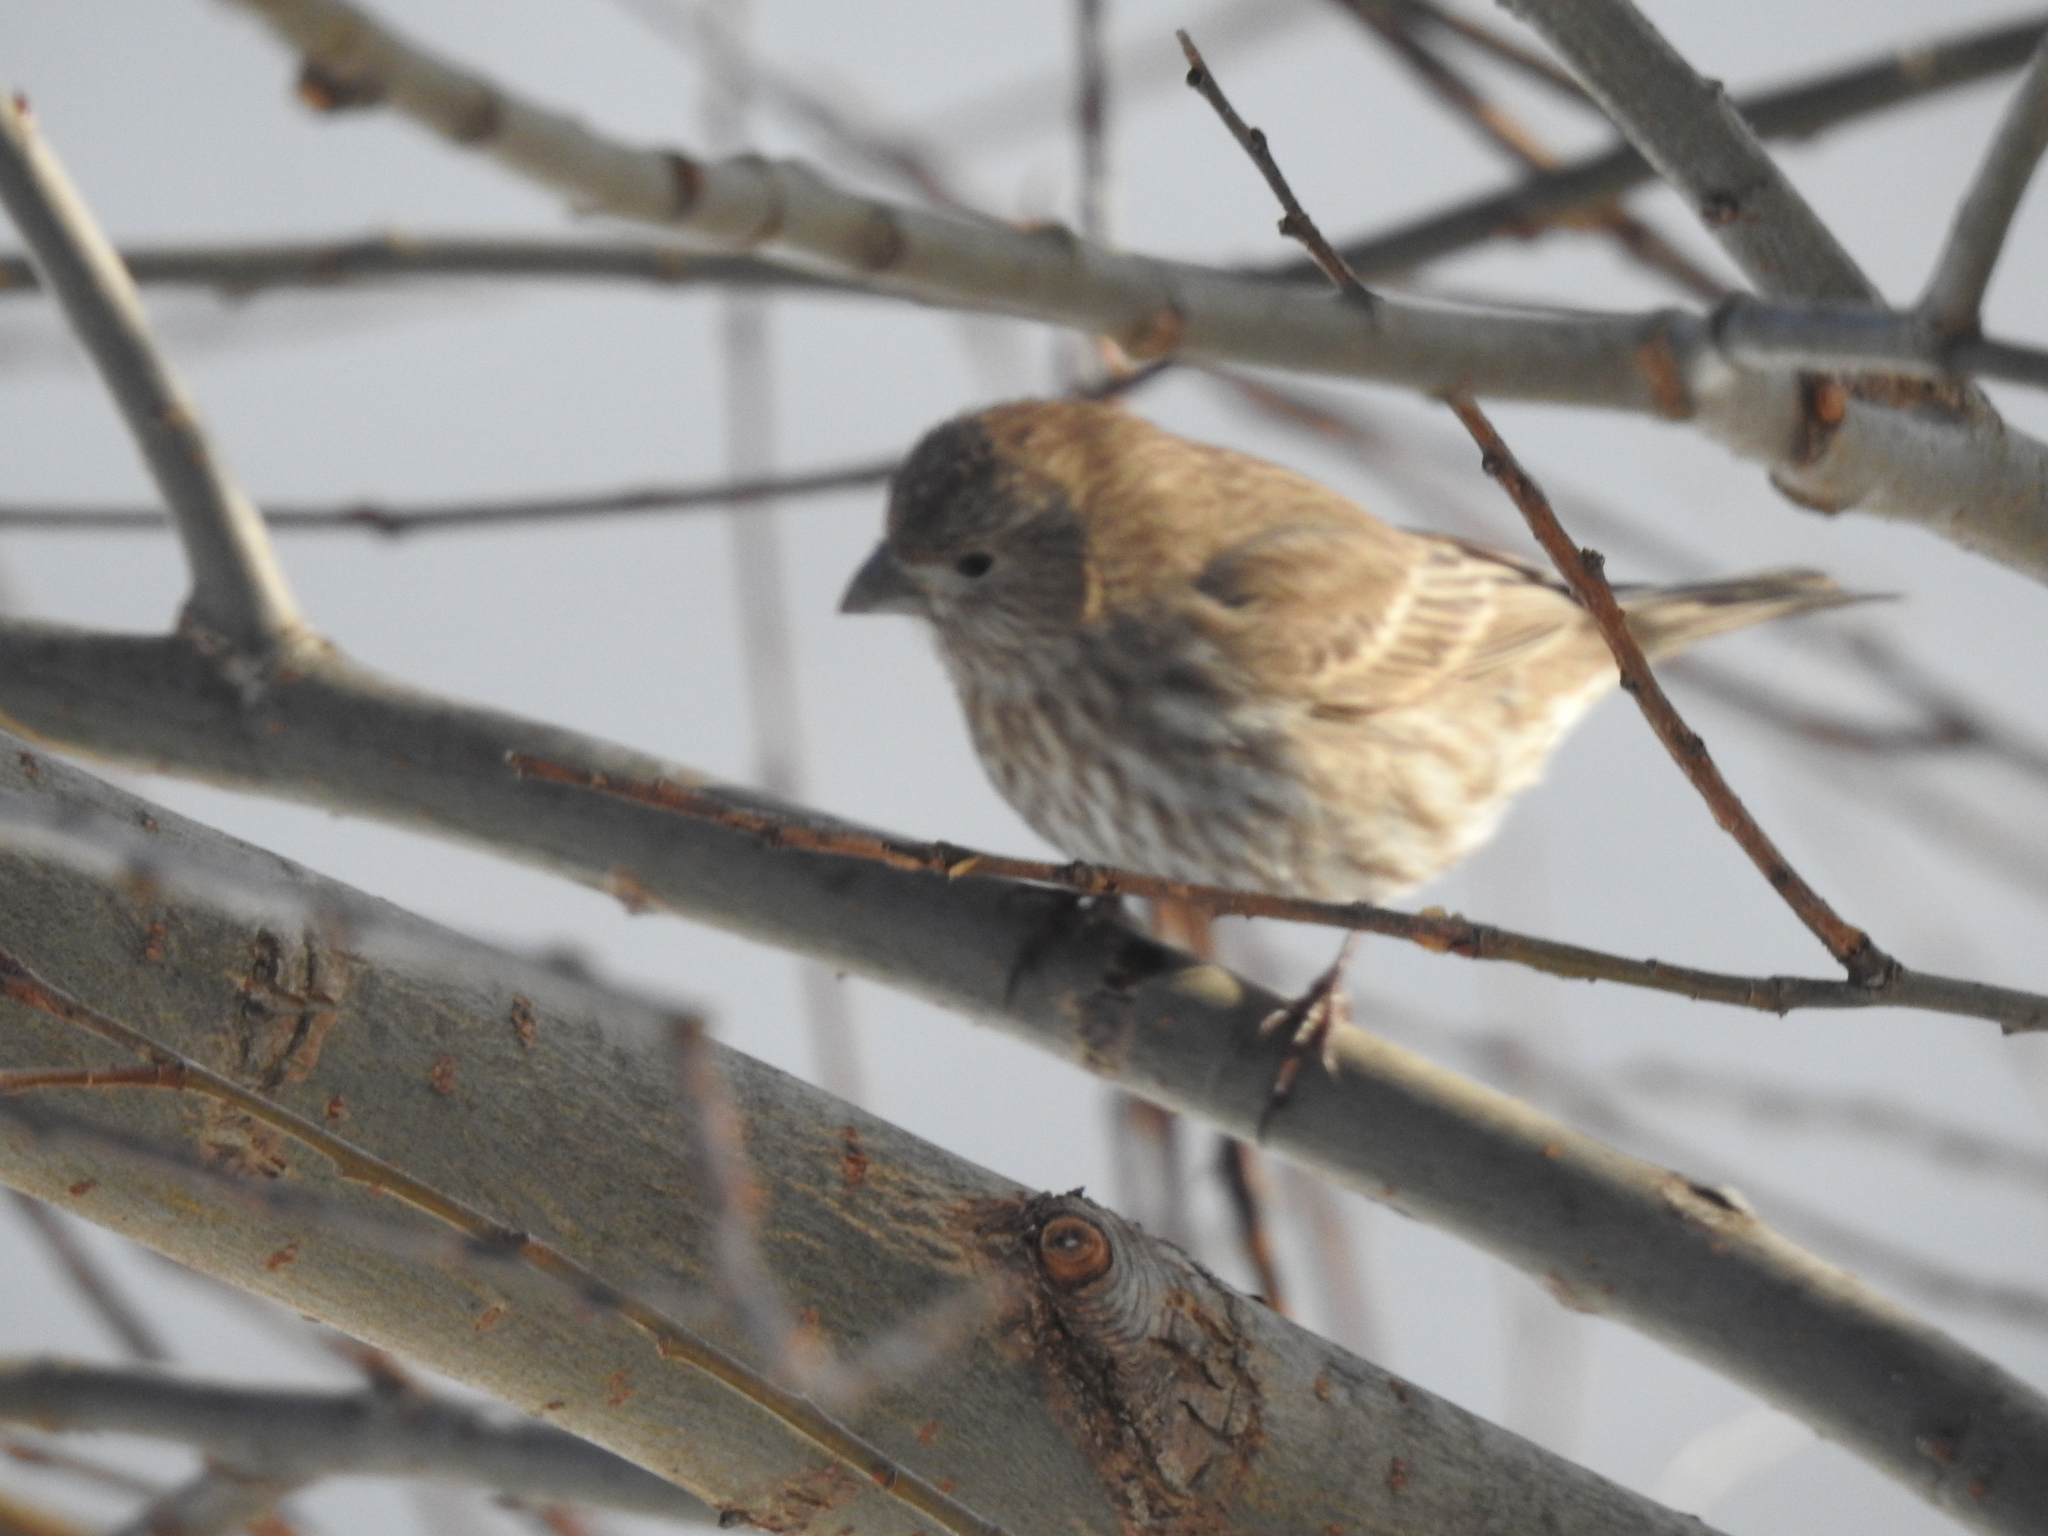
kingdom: Animalia
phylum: Chordata
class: Aves
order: Passeriformes
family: Fringillidae
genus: Haemorhous
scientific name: Haemorhous mexicanus
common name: House finch
